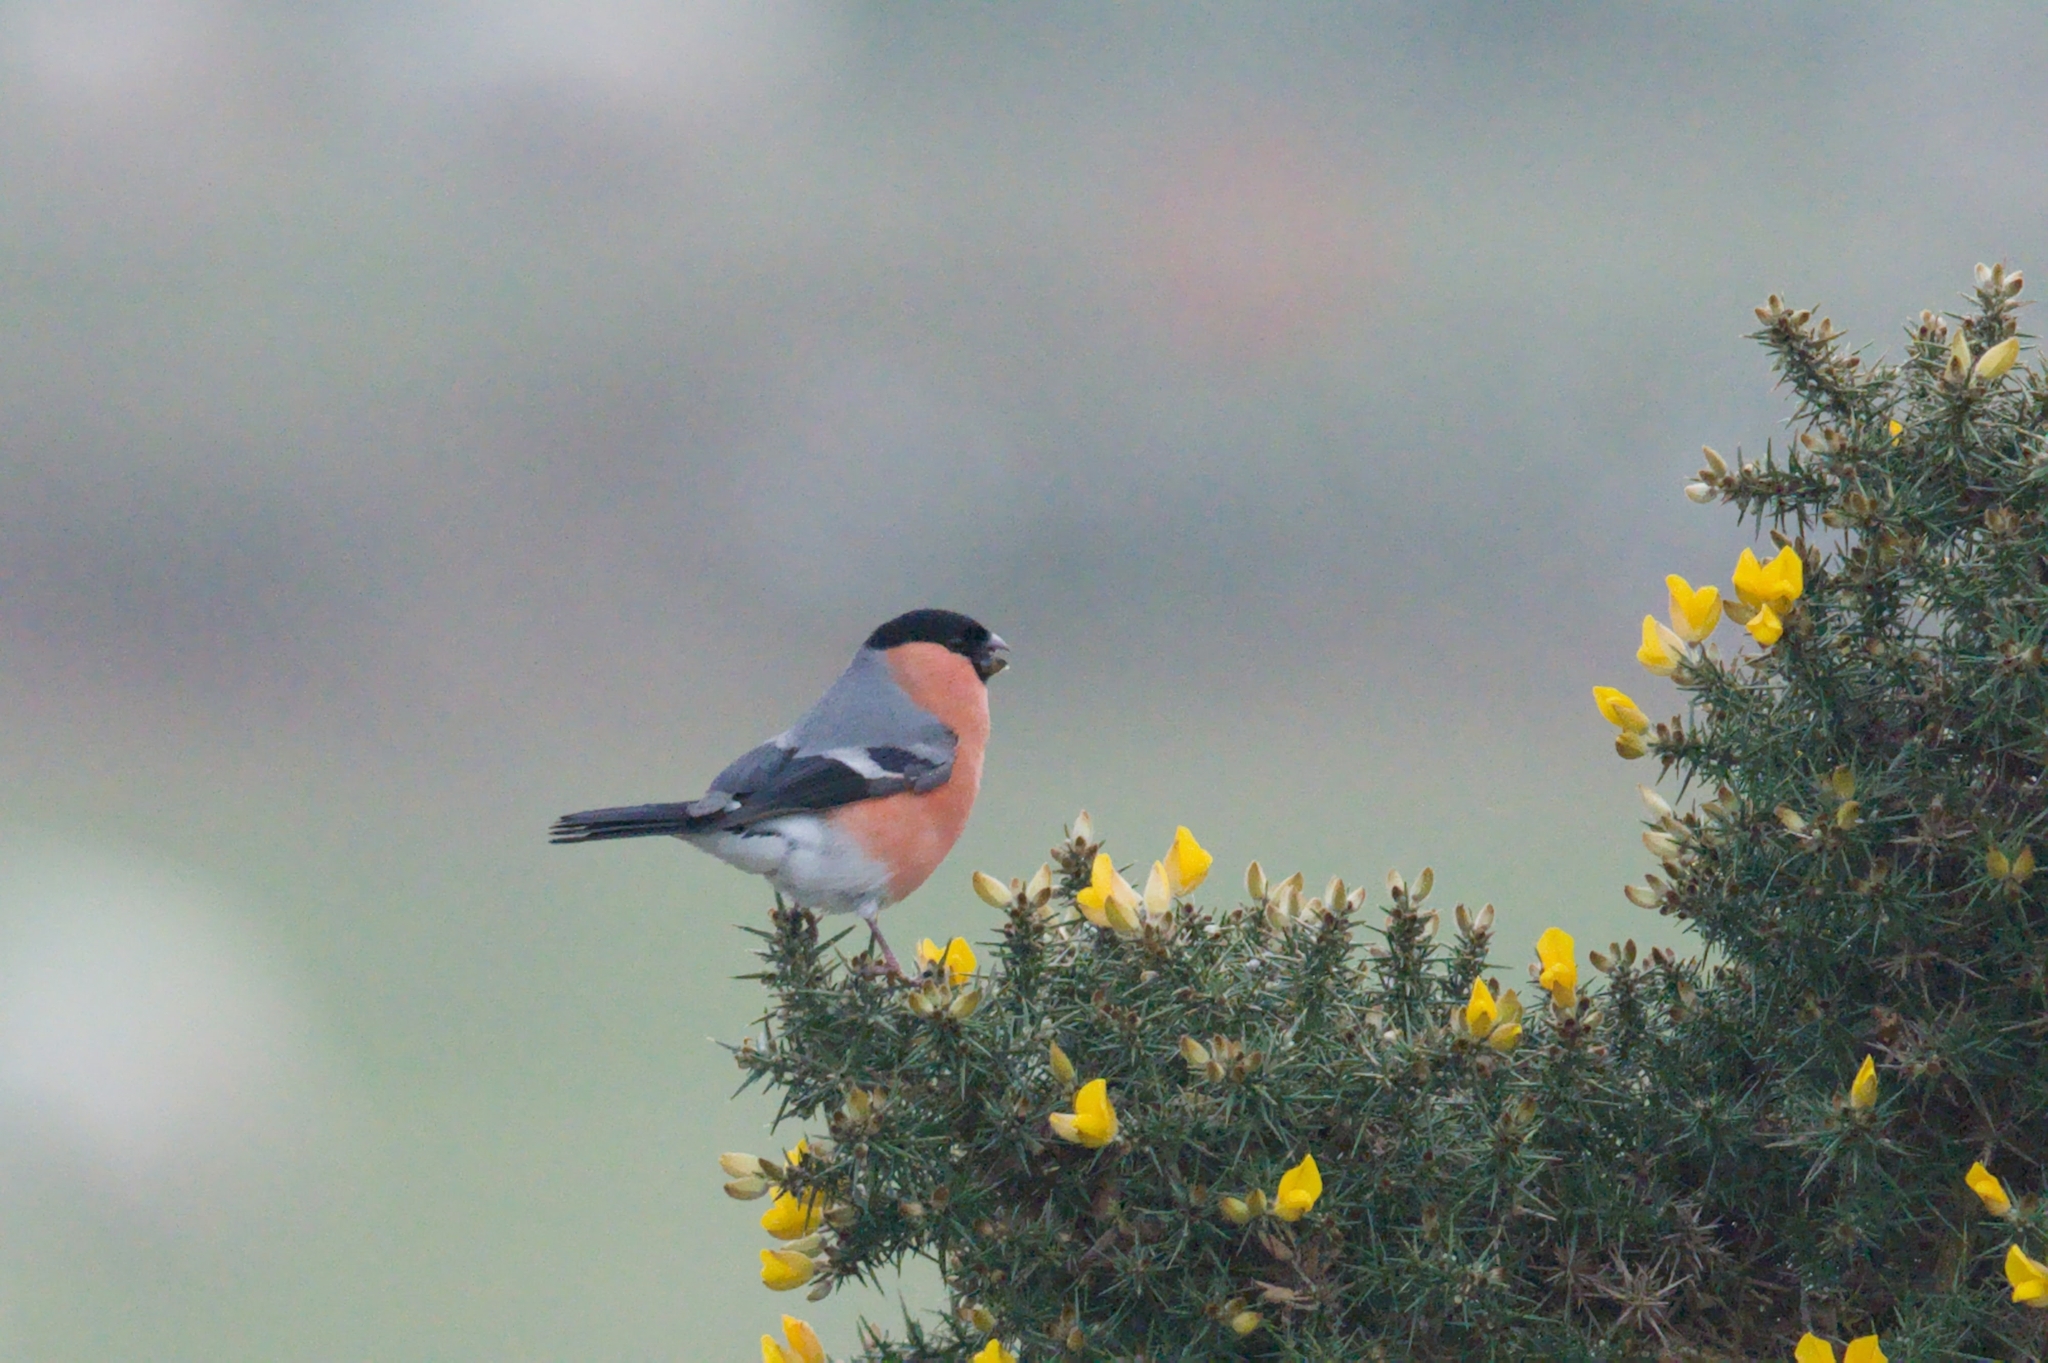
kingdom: Animalia
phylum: Chordata
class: Aves
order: Passeriformes
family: Fringillidae
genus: Pyrrhula
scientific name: Pyrrhula pyrrhula
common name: Eurasian bullfinch
